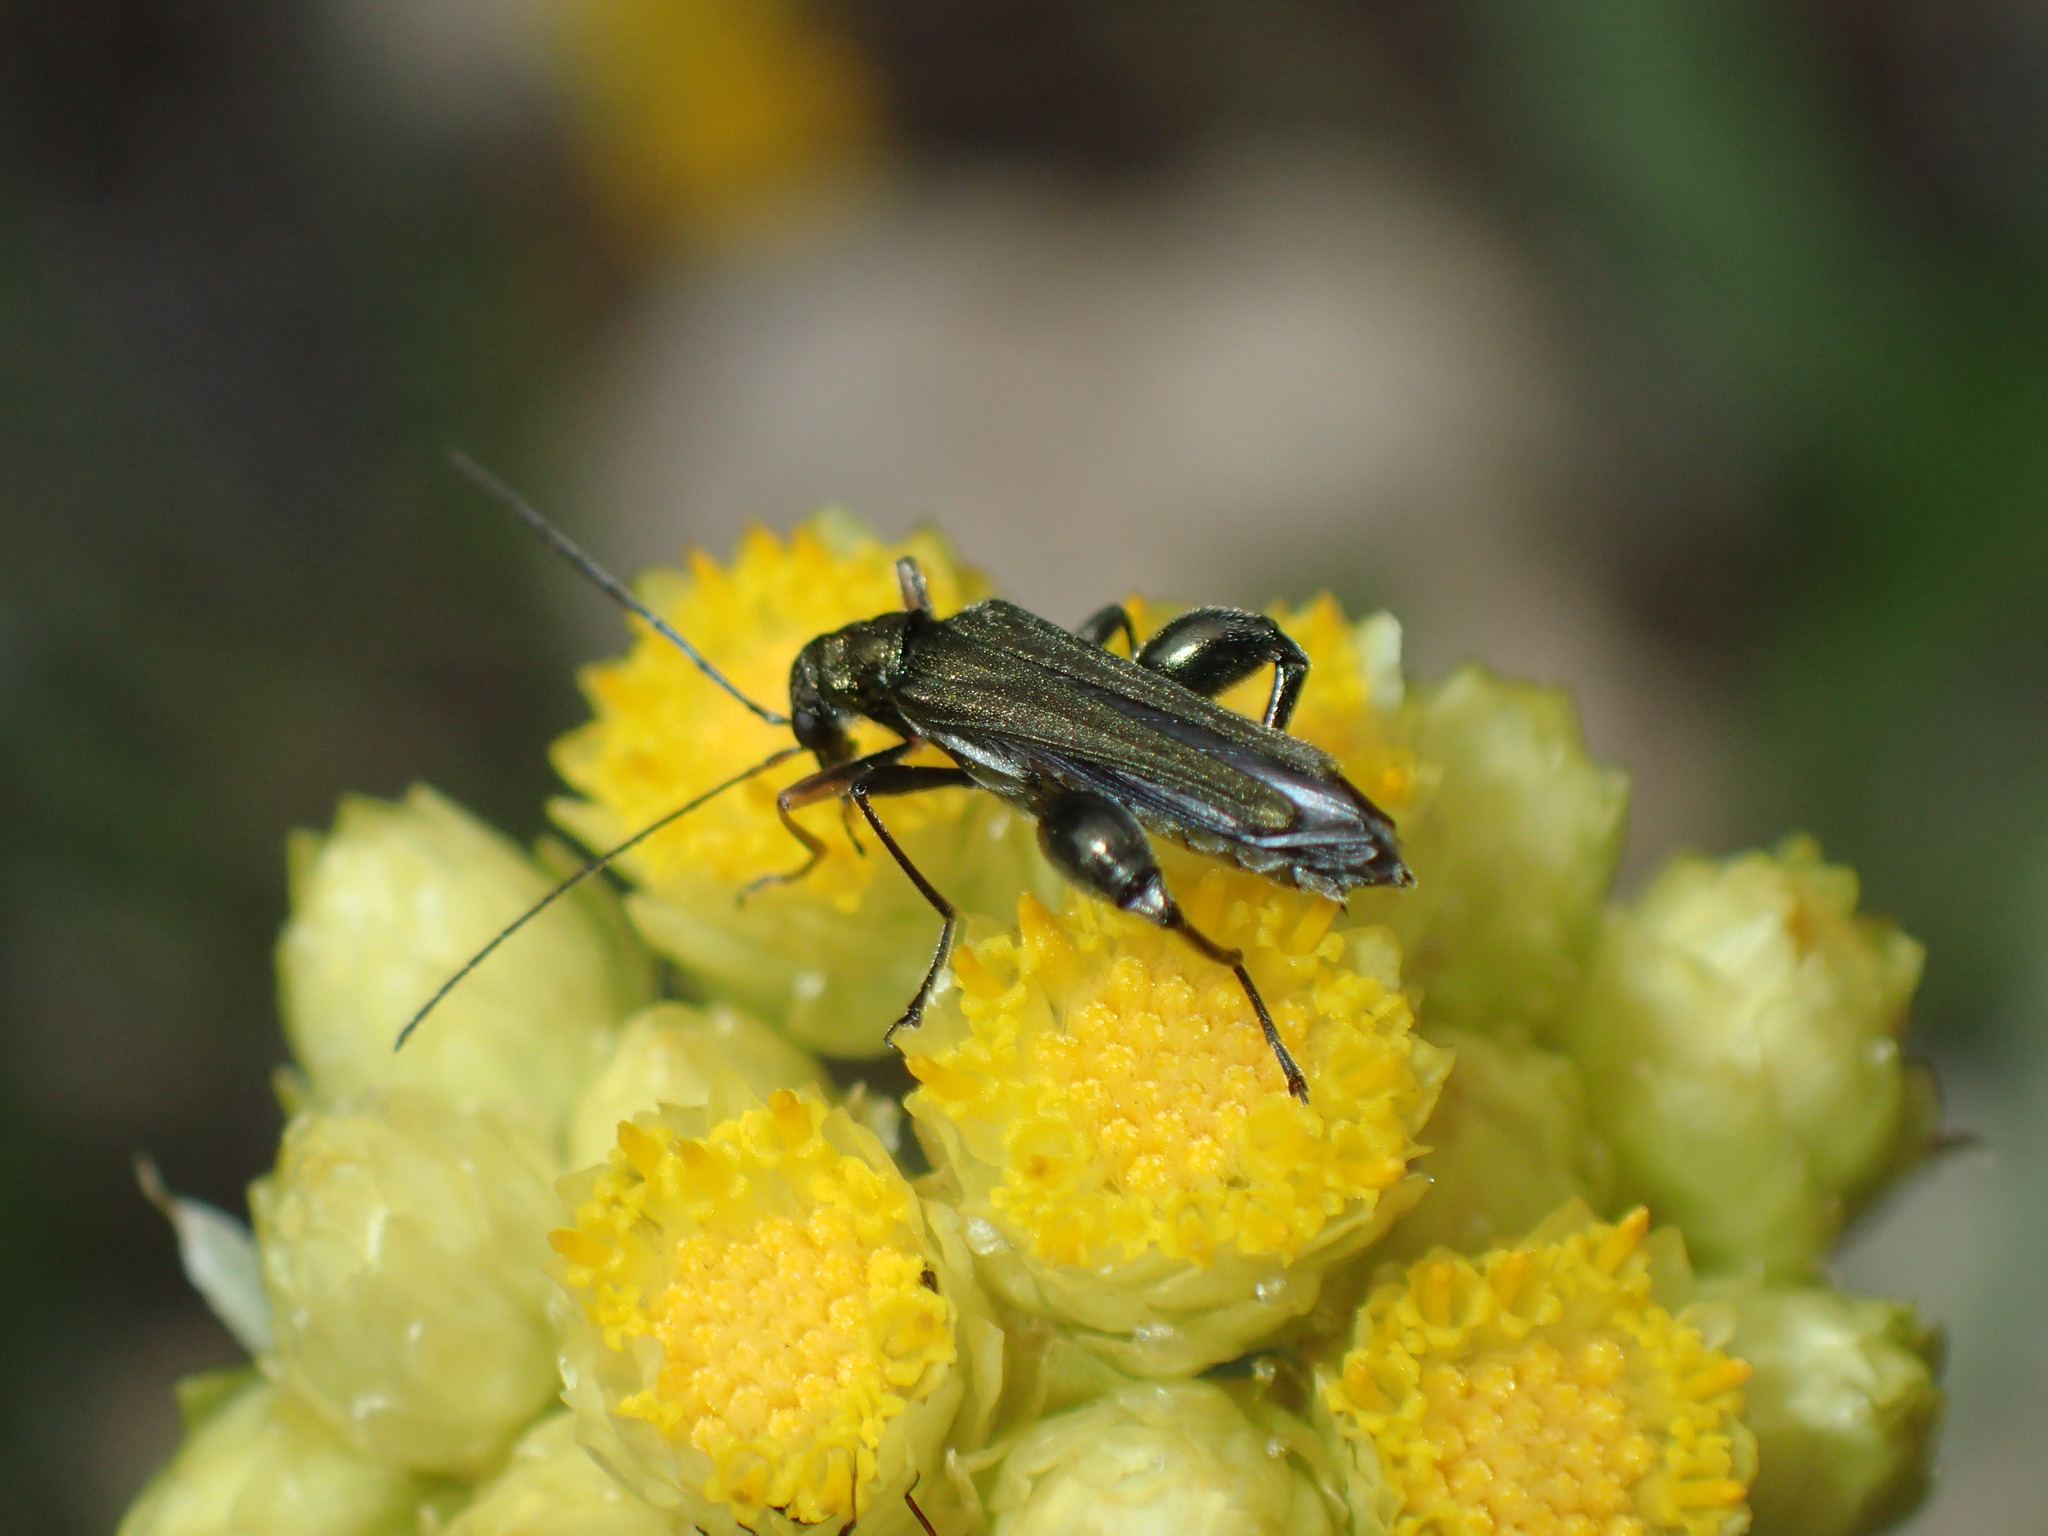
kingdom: Animalia
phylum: Arthropoda
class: Insecta
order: Coleoptera
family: Oedemeridae
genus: Oedemera
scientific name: Oedemera flavipes
